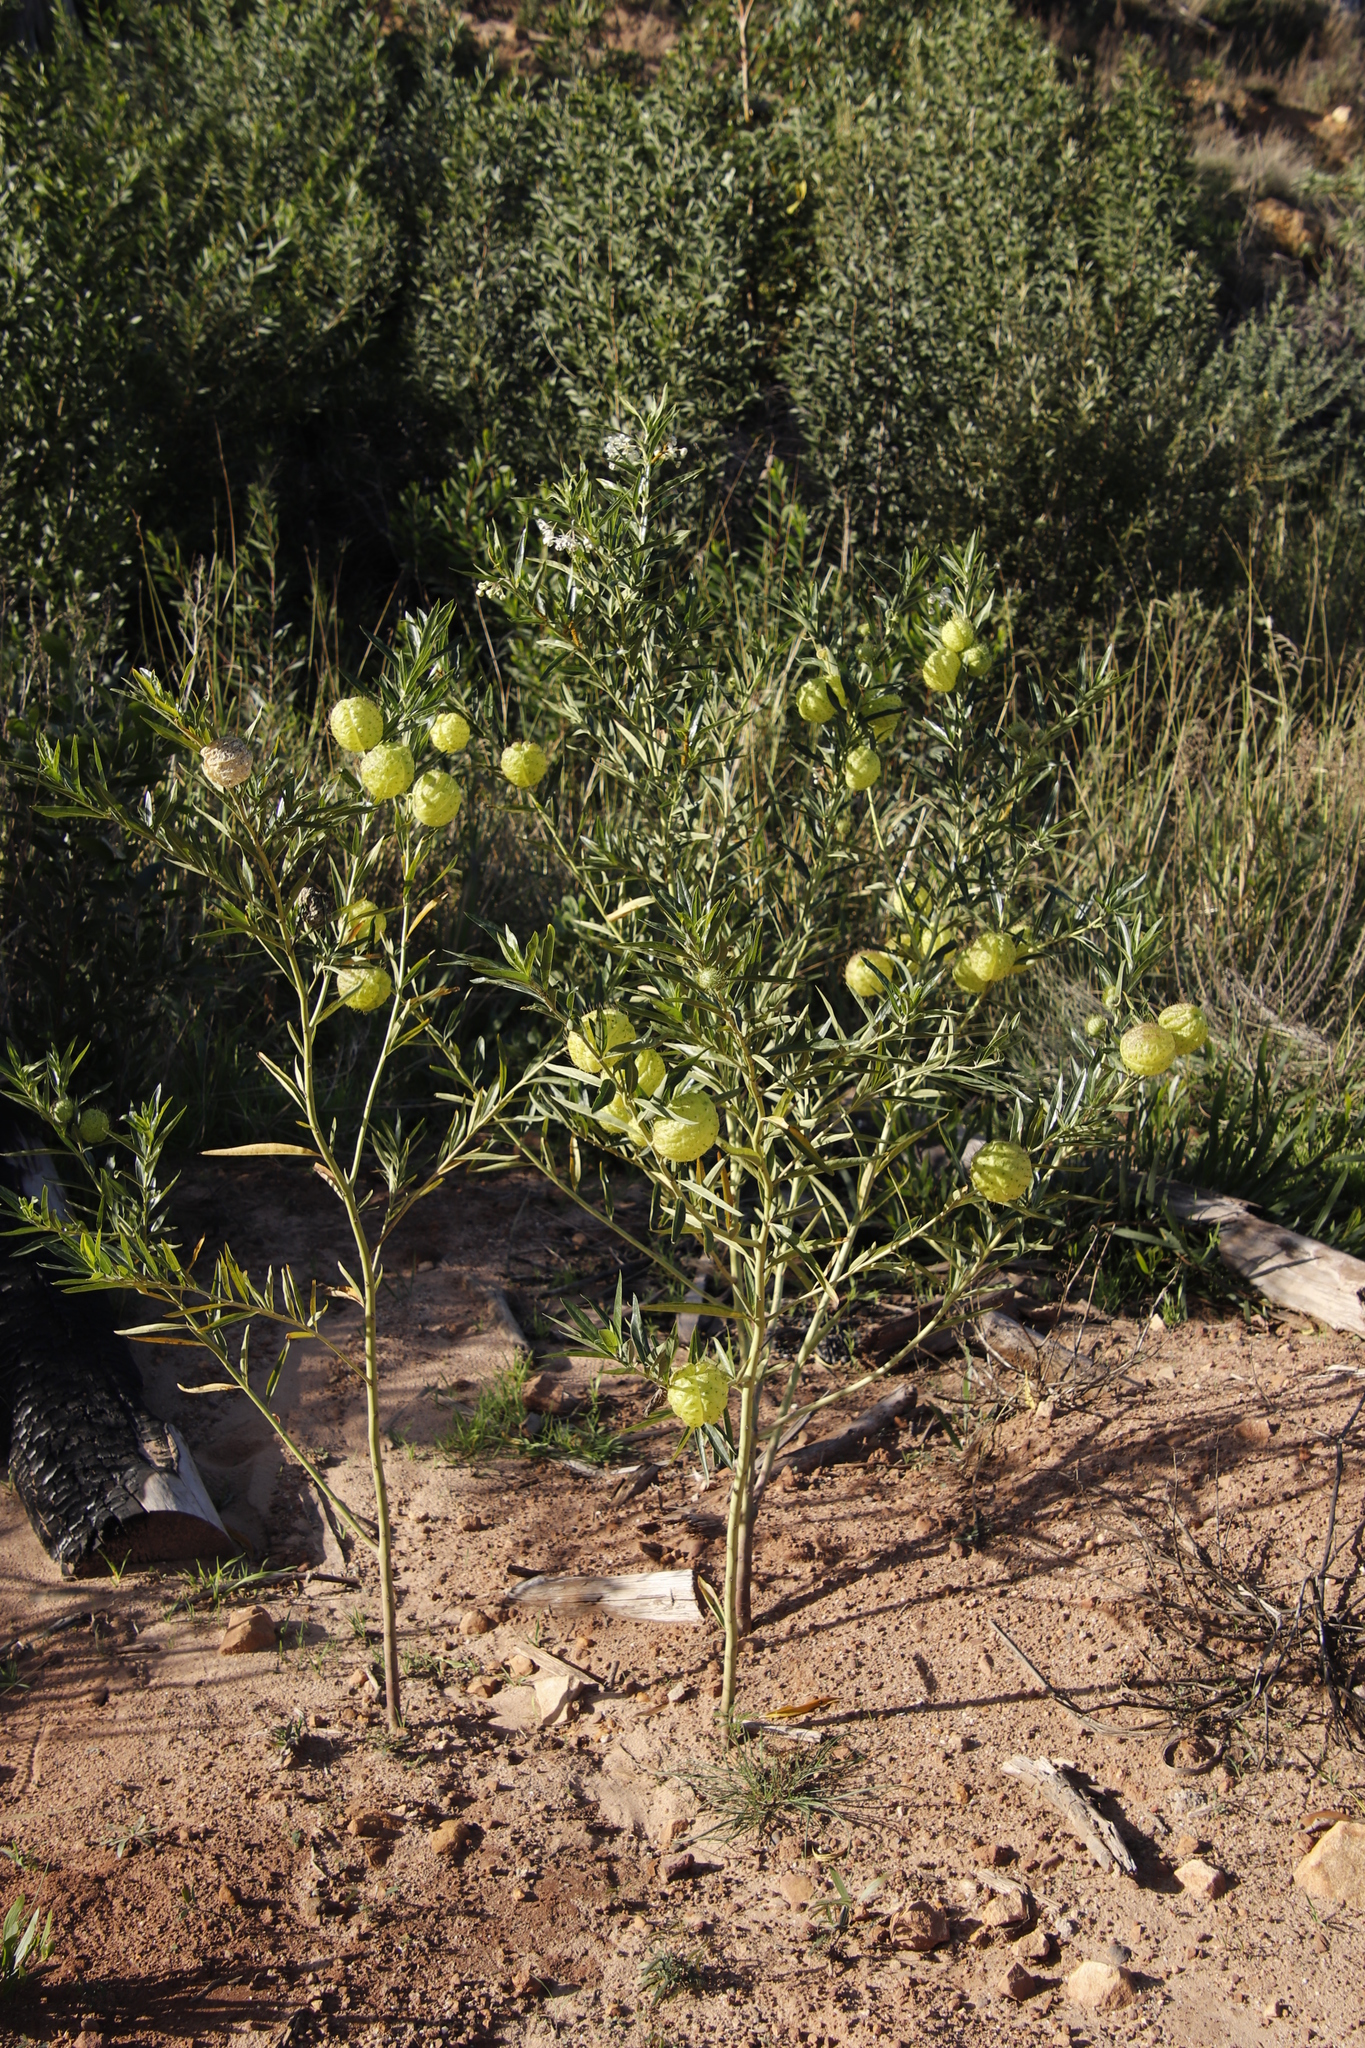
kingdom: Plantae
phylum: Tracheophyta
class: Magnoliopsida
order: Gentianales
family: Apocynaceae
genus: Gomphocarpus
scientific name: Gomphocarpus physocarpus
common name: Balloon cotton bush
